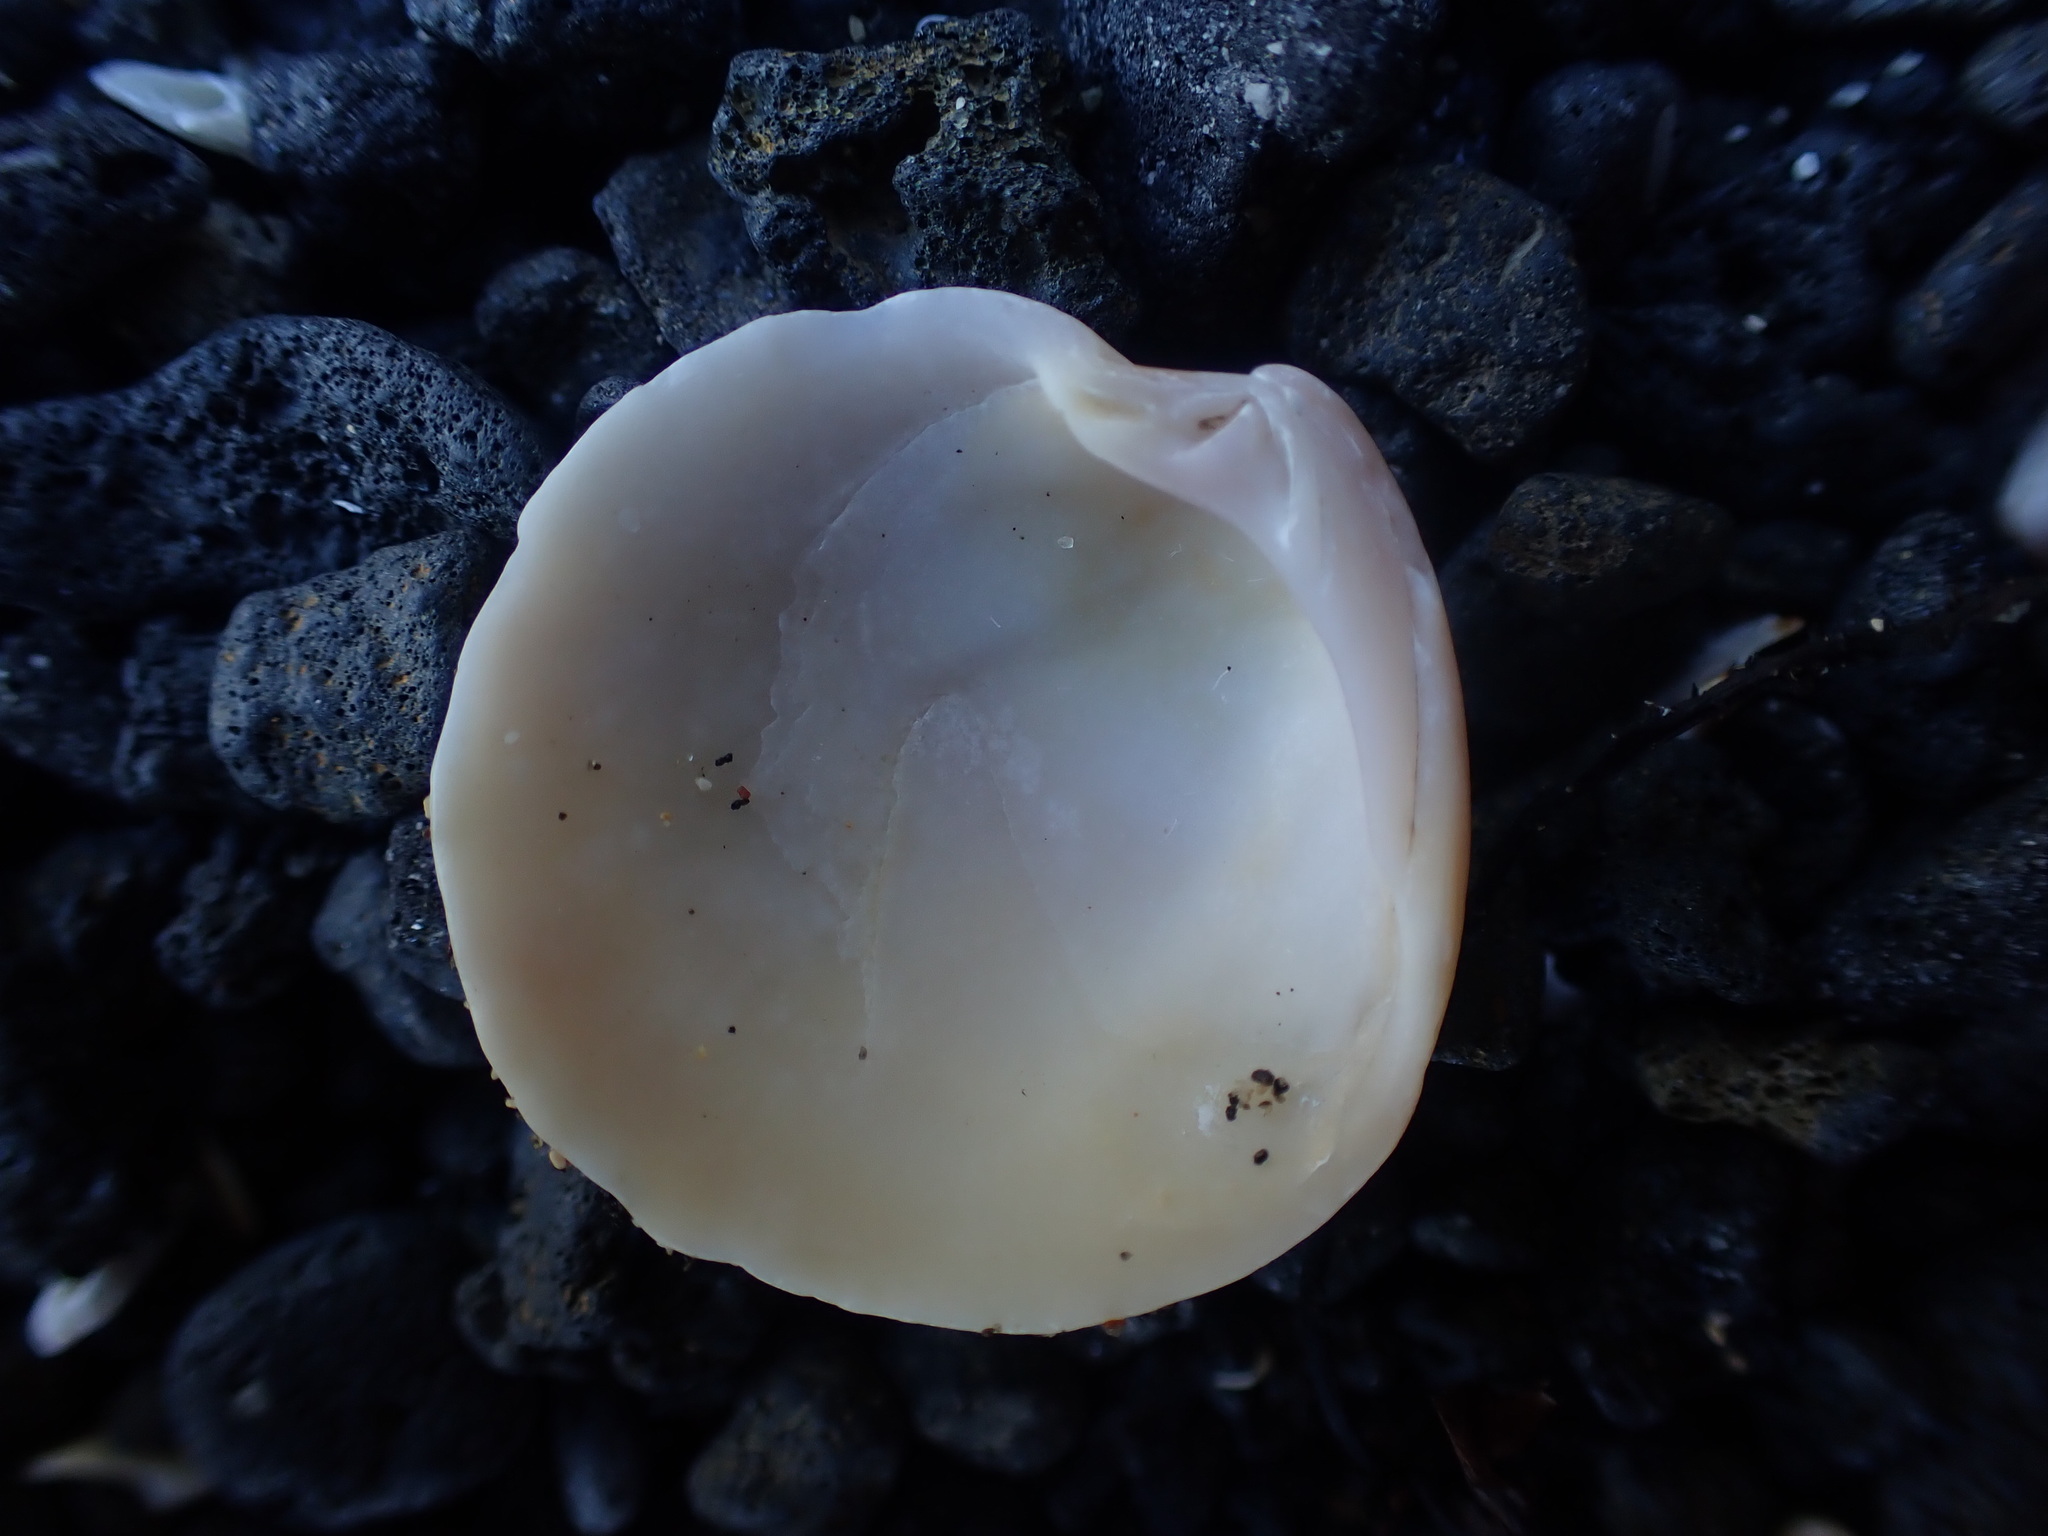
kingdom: Animalia
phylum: Mollusca
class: Bivalvia
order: Venerida
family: Veneridae
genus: Dosinia
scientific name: Dosinia maoriana
